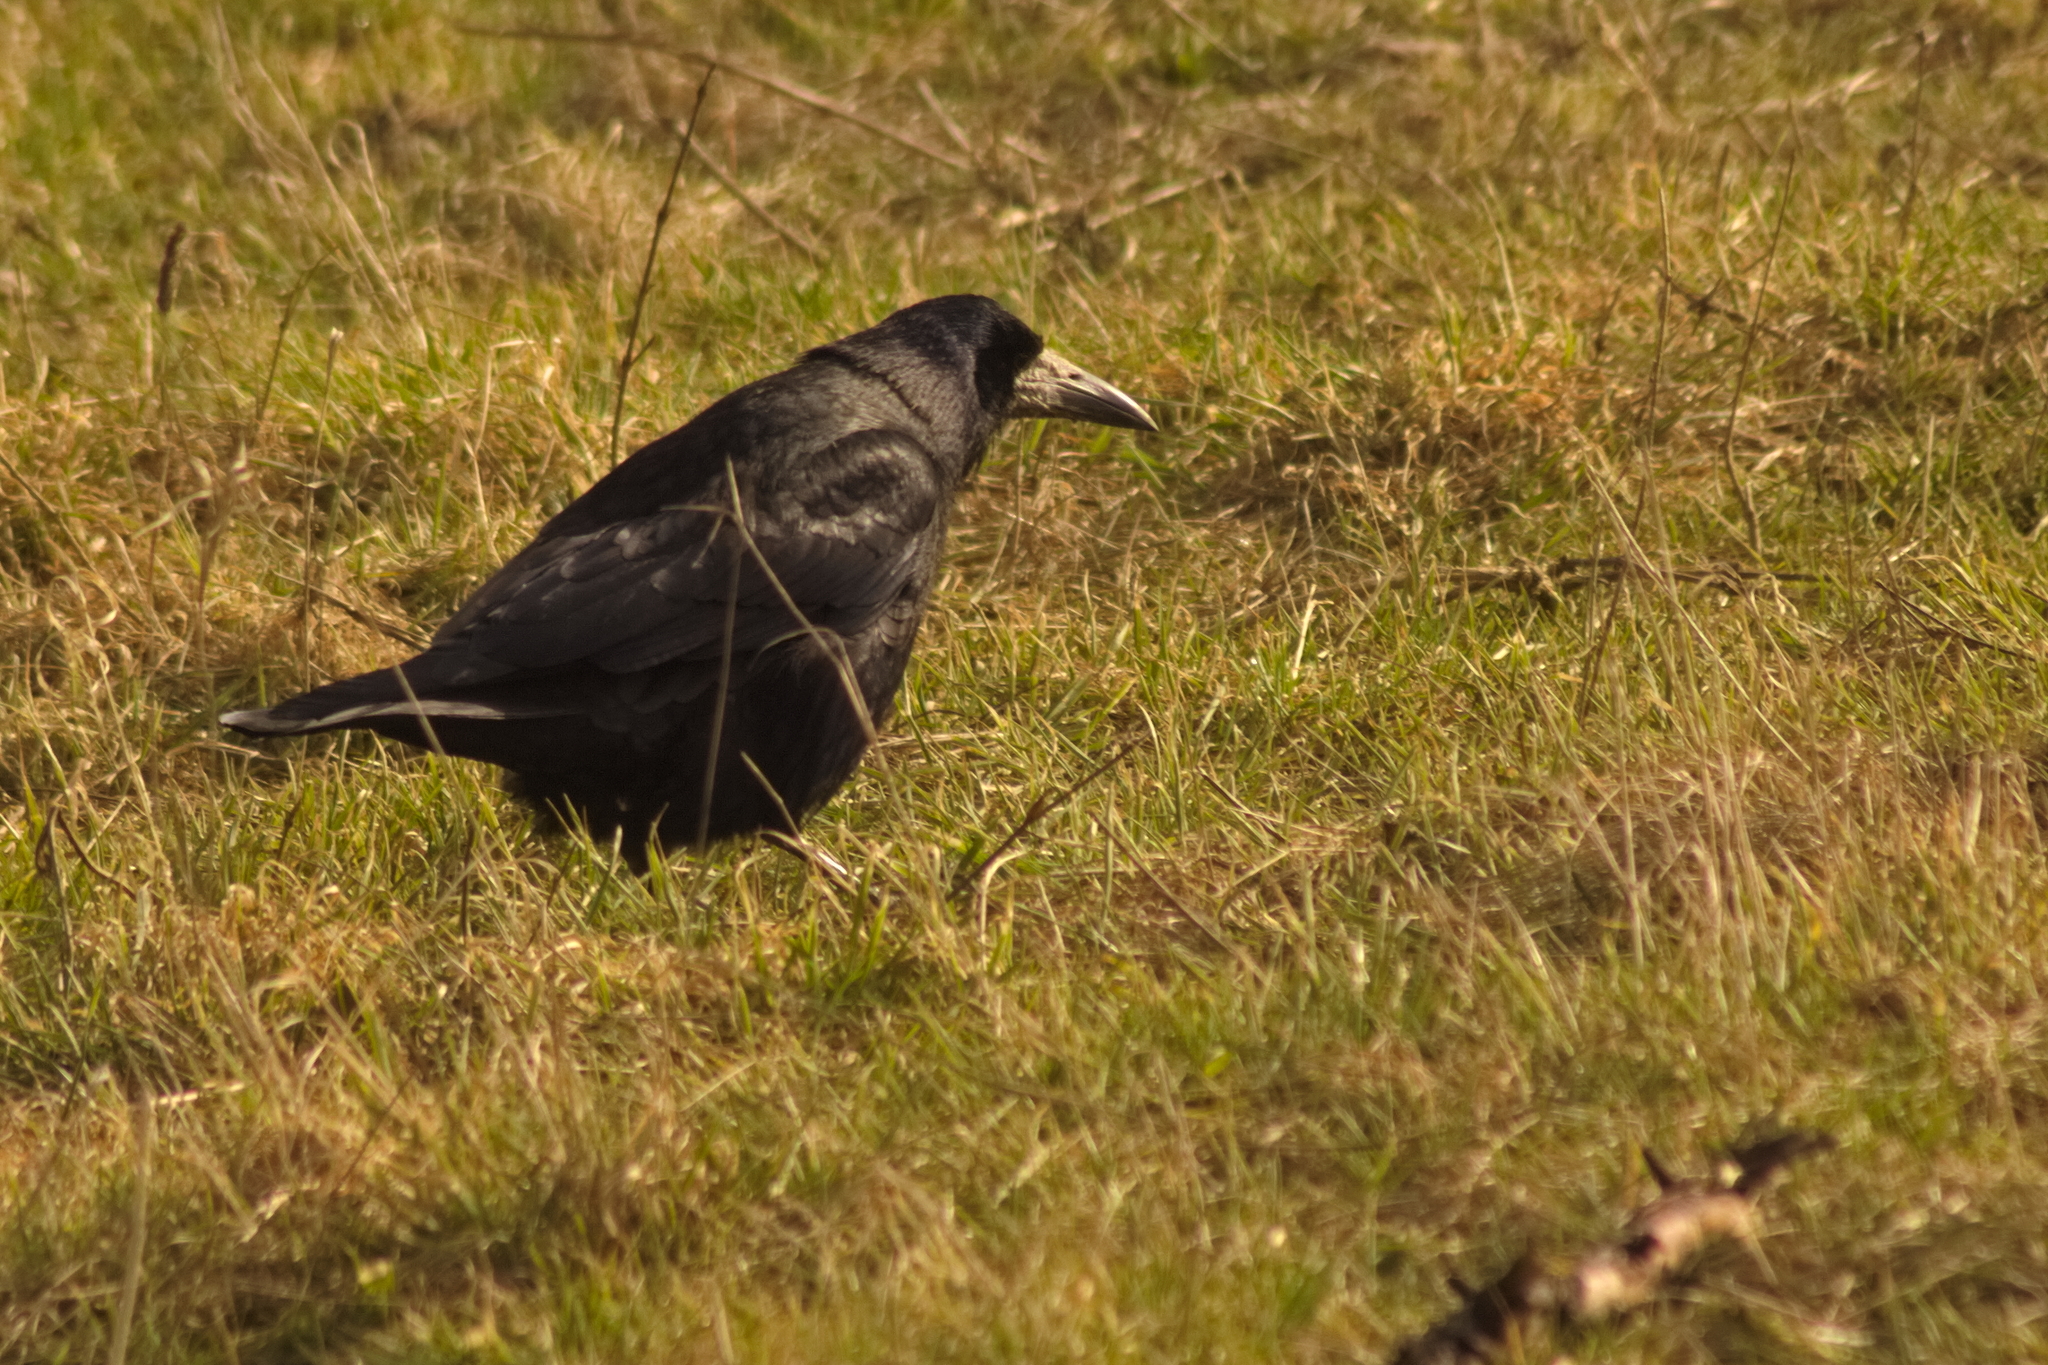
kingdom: Animalia
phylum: Chordata
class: Aves
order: Passeriformes
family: Corvidae
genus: Corvus
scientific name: Corvus frugilegus
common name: Rook
